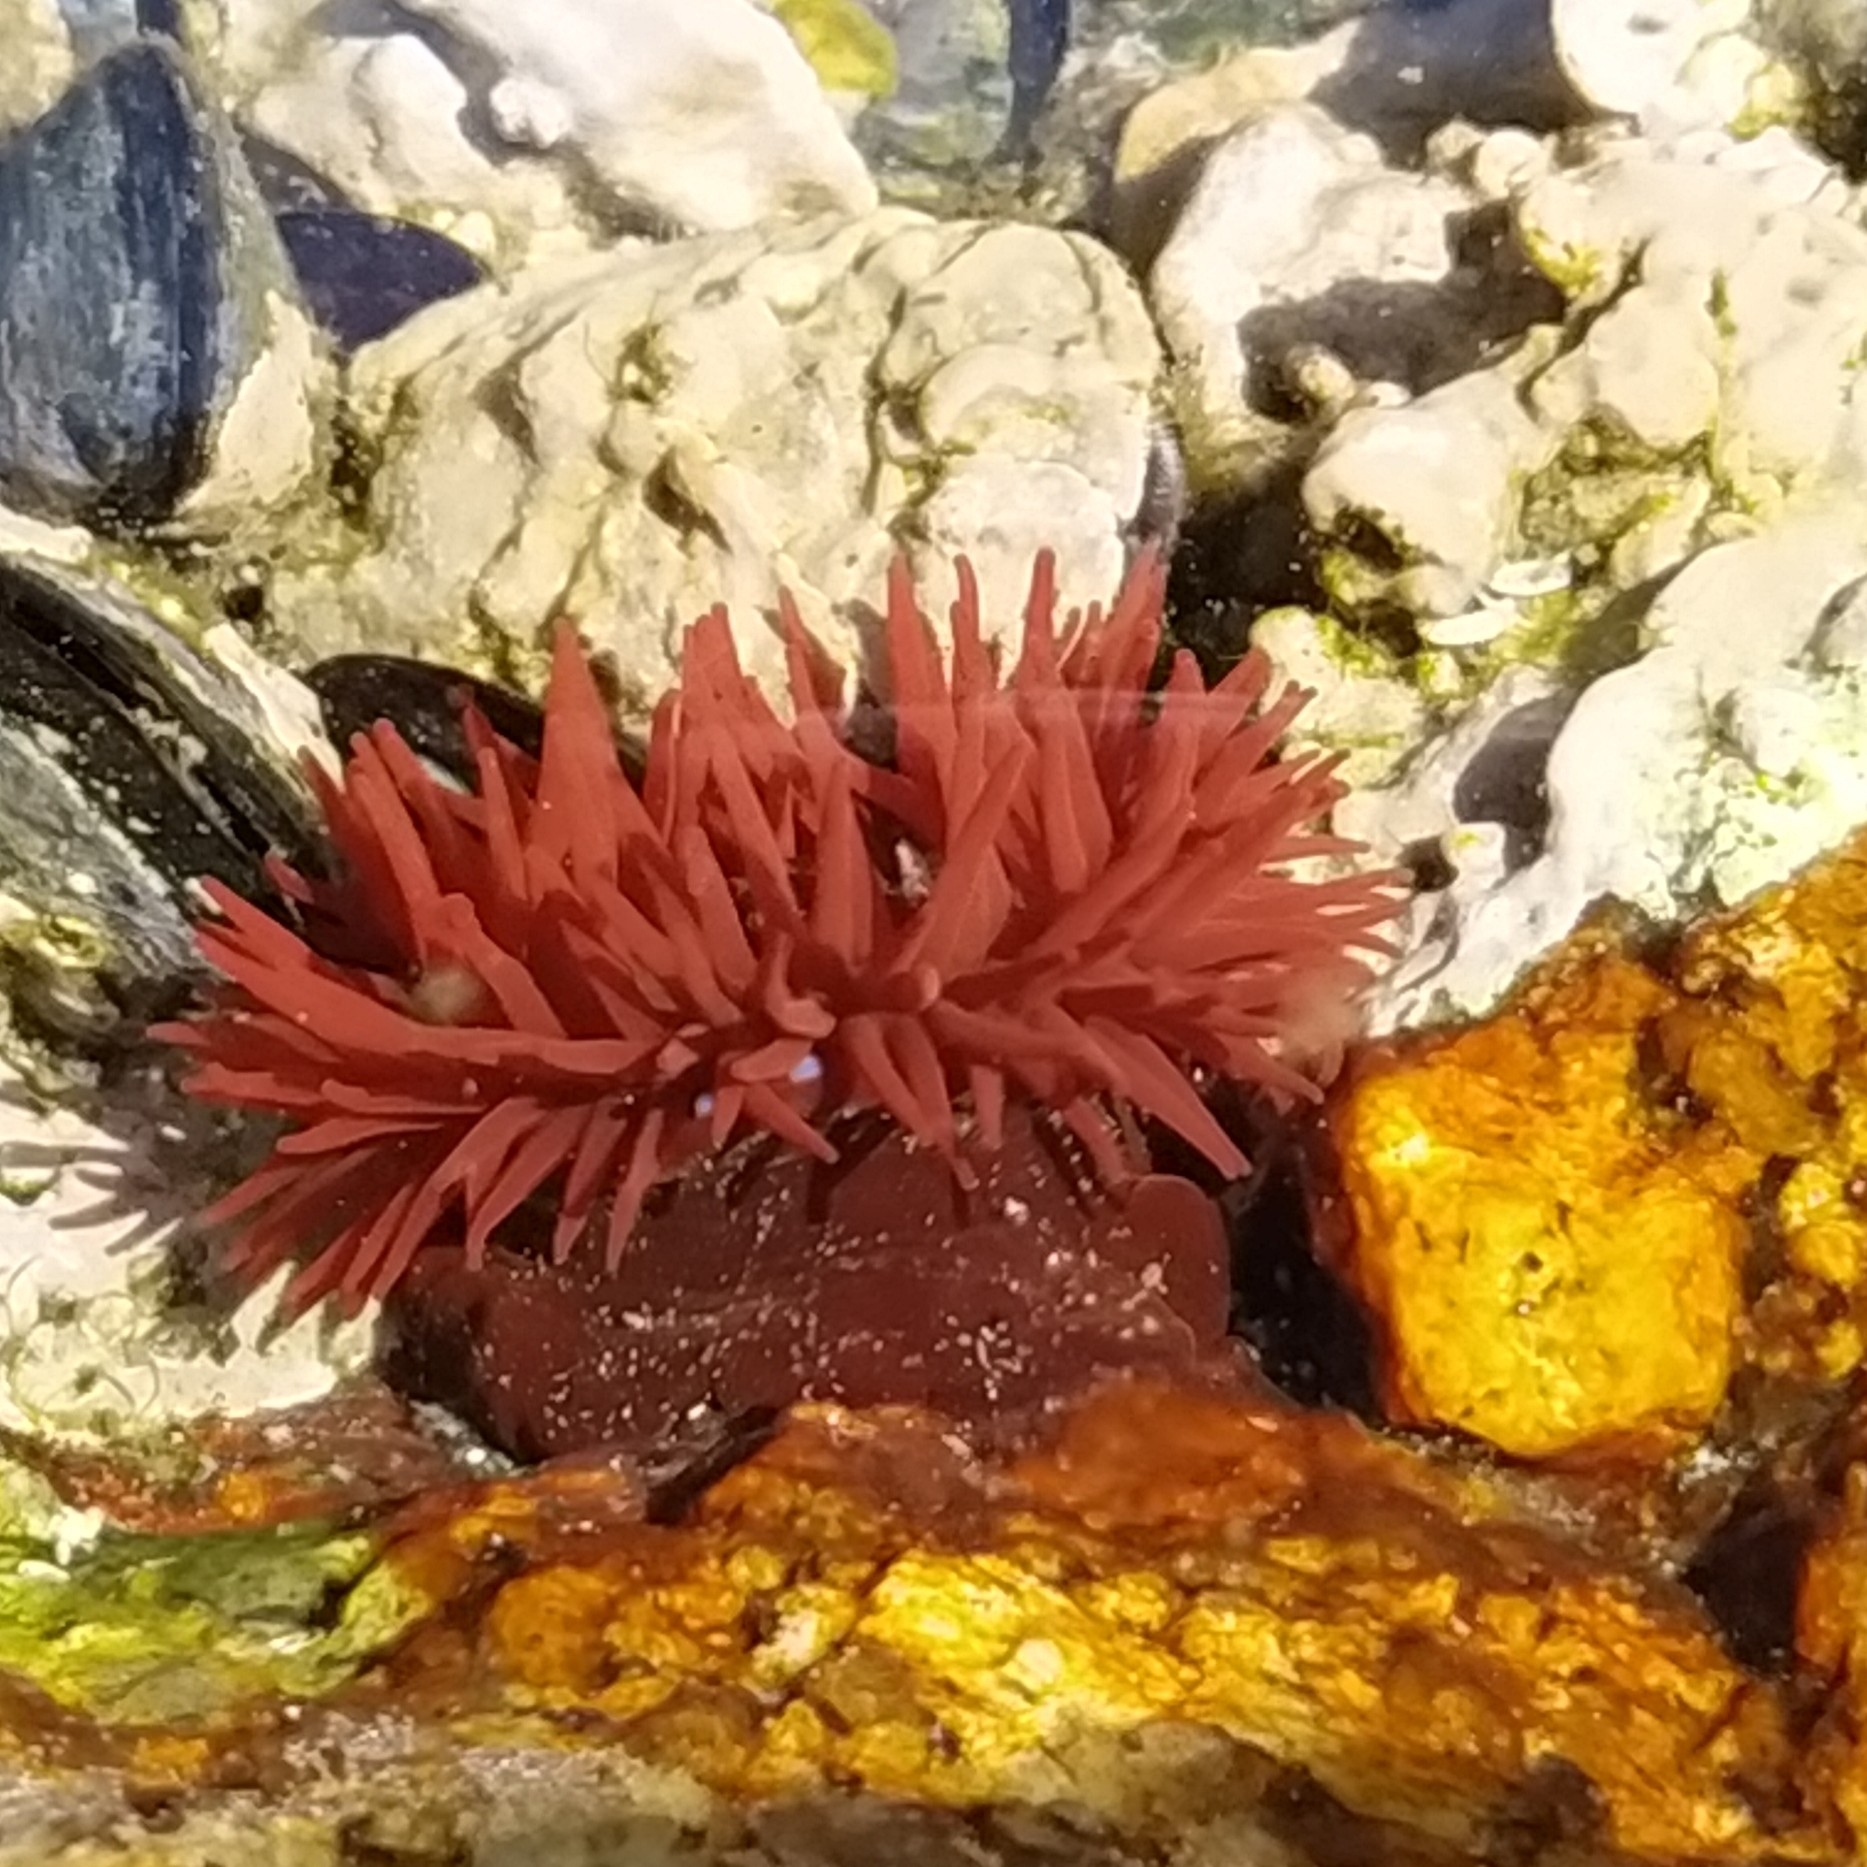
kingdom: Animalia
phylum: Cnidaria
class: Anthozoa
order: Actiniaria
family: Actiniidae
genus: Actinia
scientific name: Actinia equina
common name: Beadlet anemone
